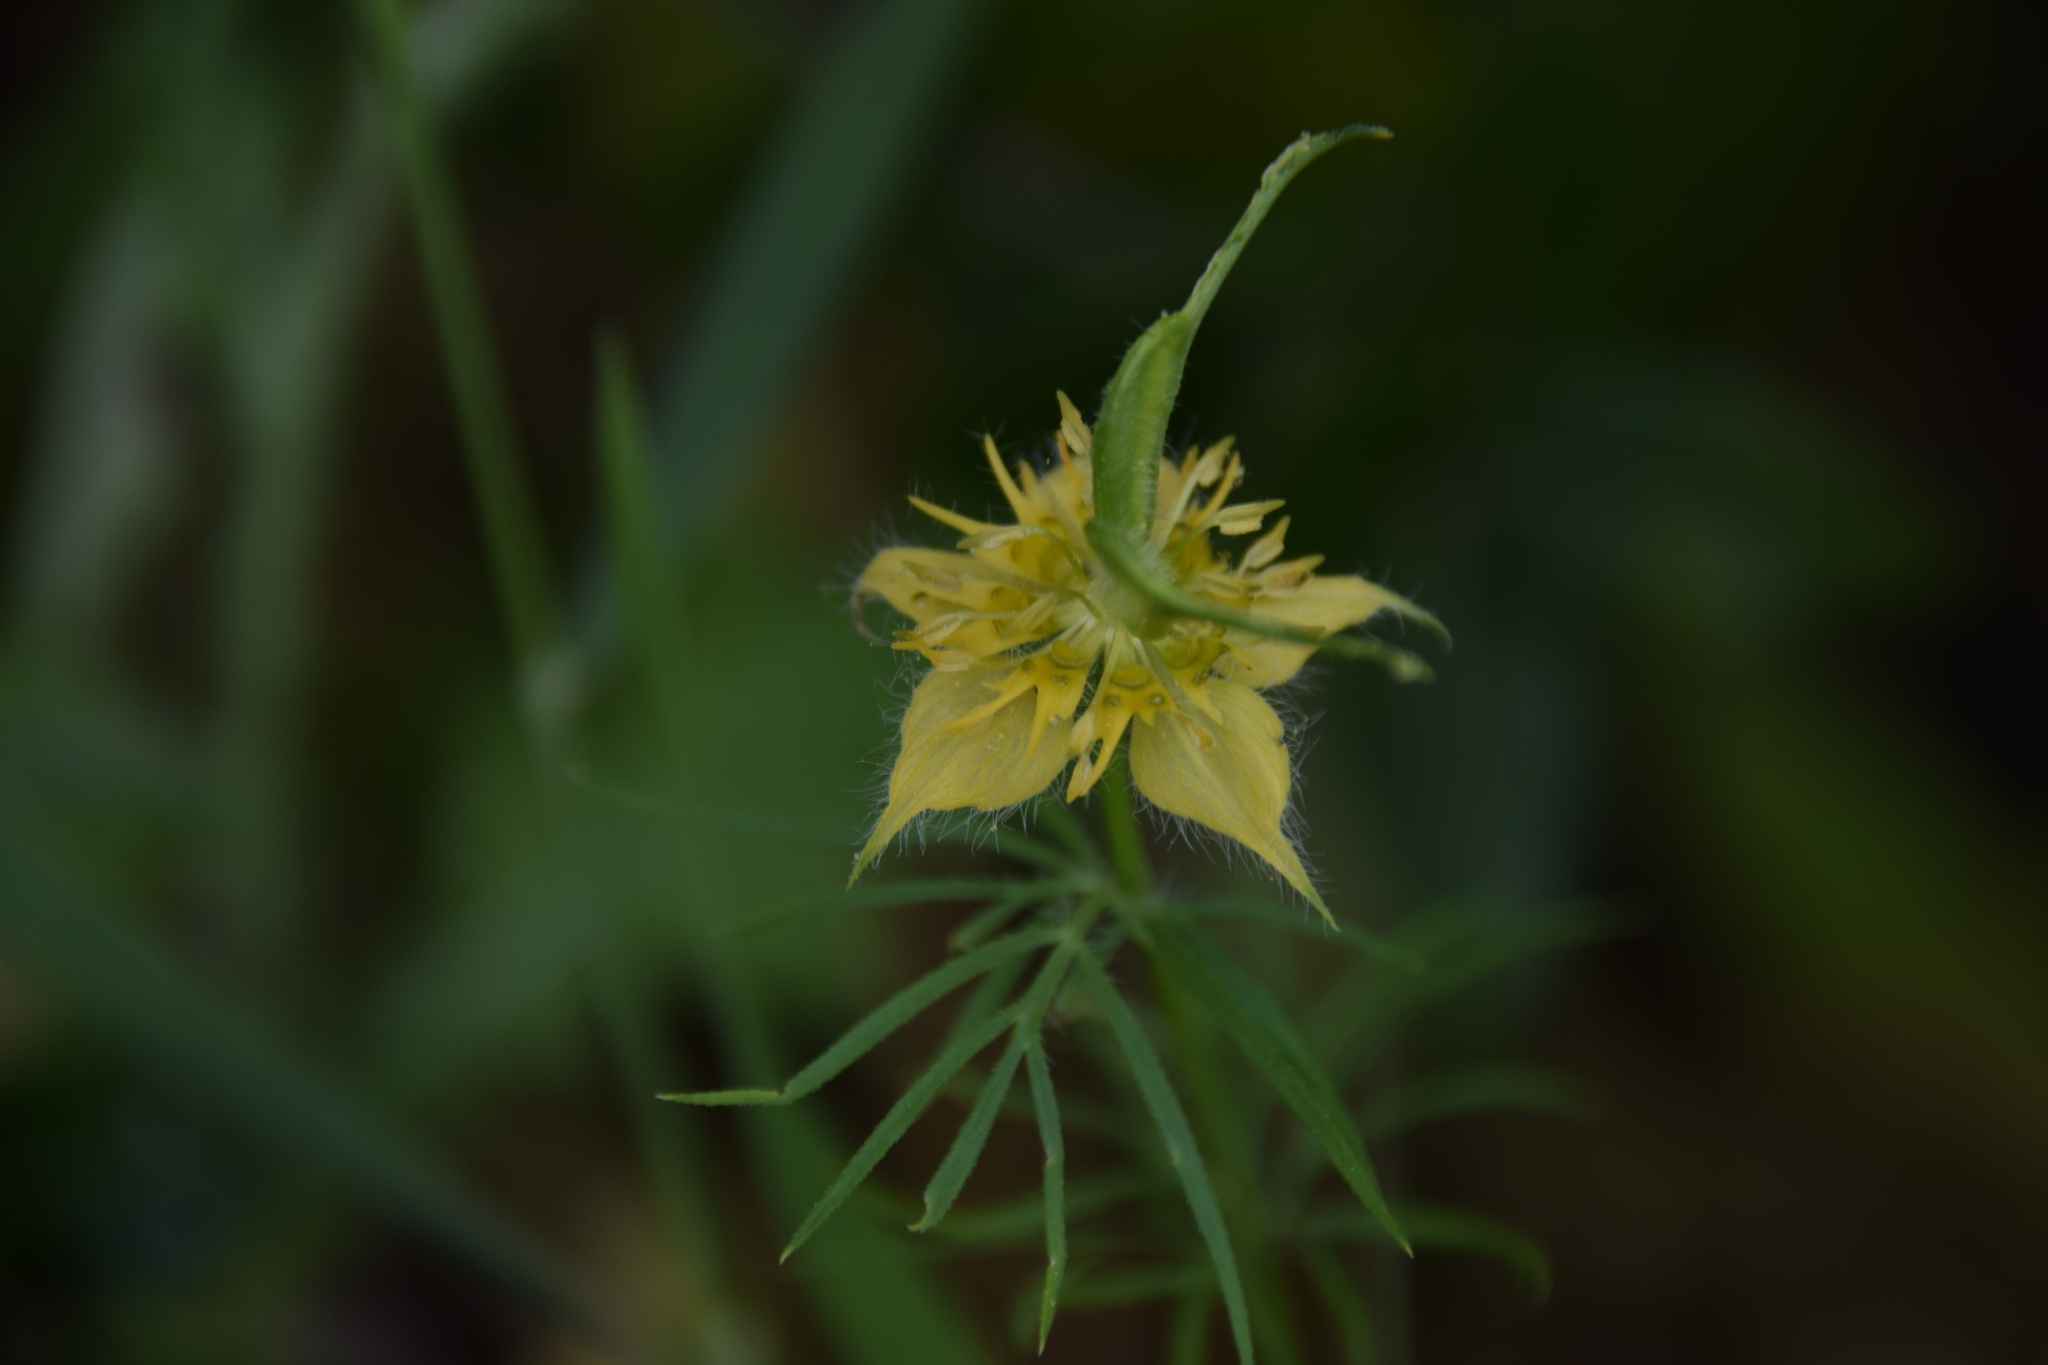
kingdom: Plantae
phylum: Tracheophyta
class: Magnoliopsida
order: Ranunculales
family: Ranunculaceae
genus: Nigella
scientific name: Nigella ciliaris
